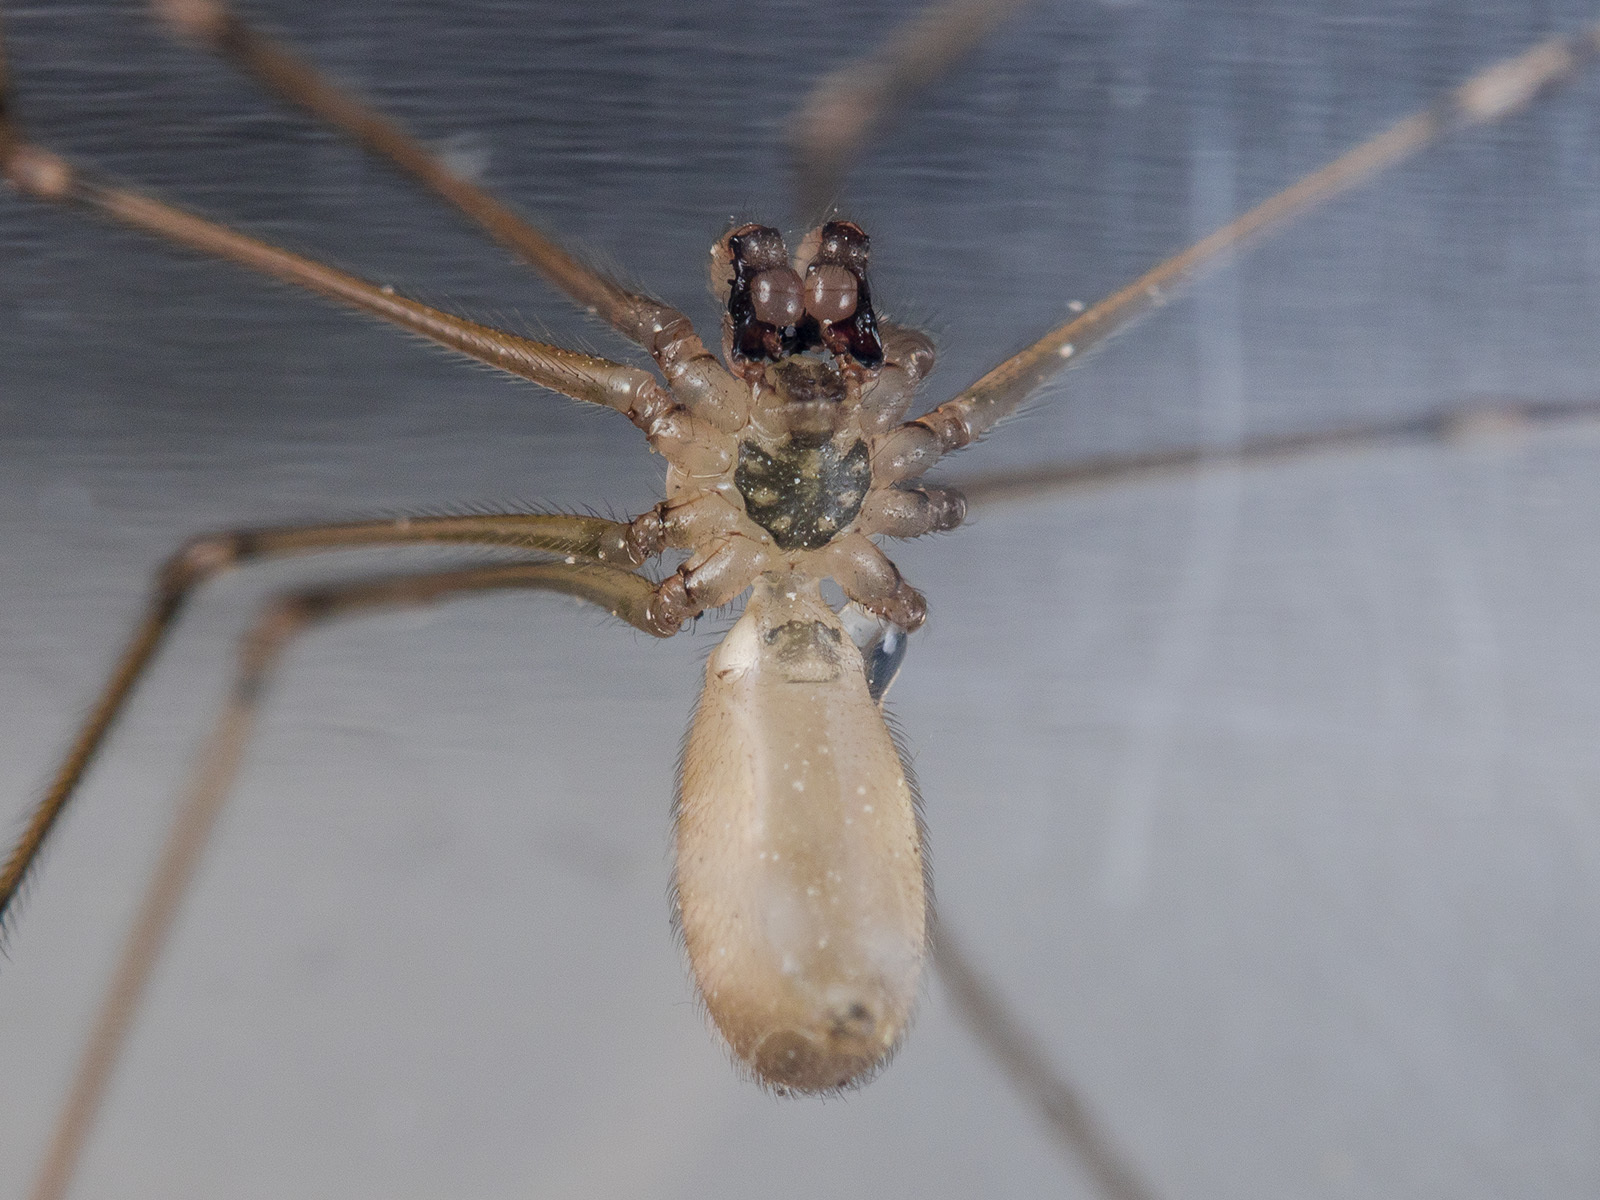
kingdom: Animalia
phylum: Arthropoda
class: Arachnida
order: Araneae
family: Pholcidae
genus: Pholcus
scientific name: Pholcus manueli
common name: Cellar spider
